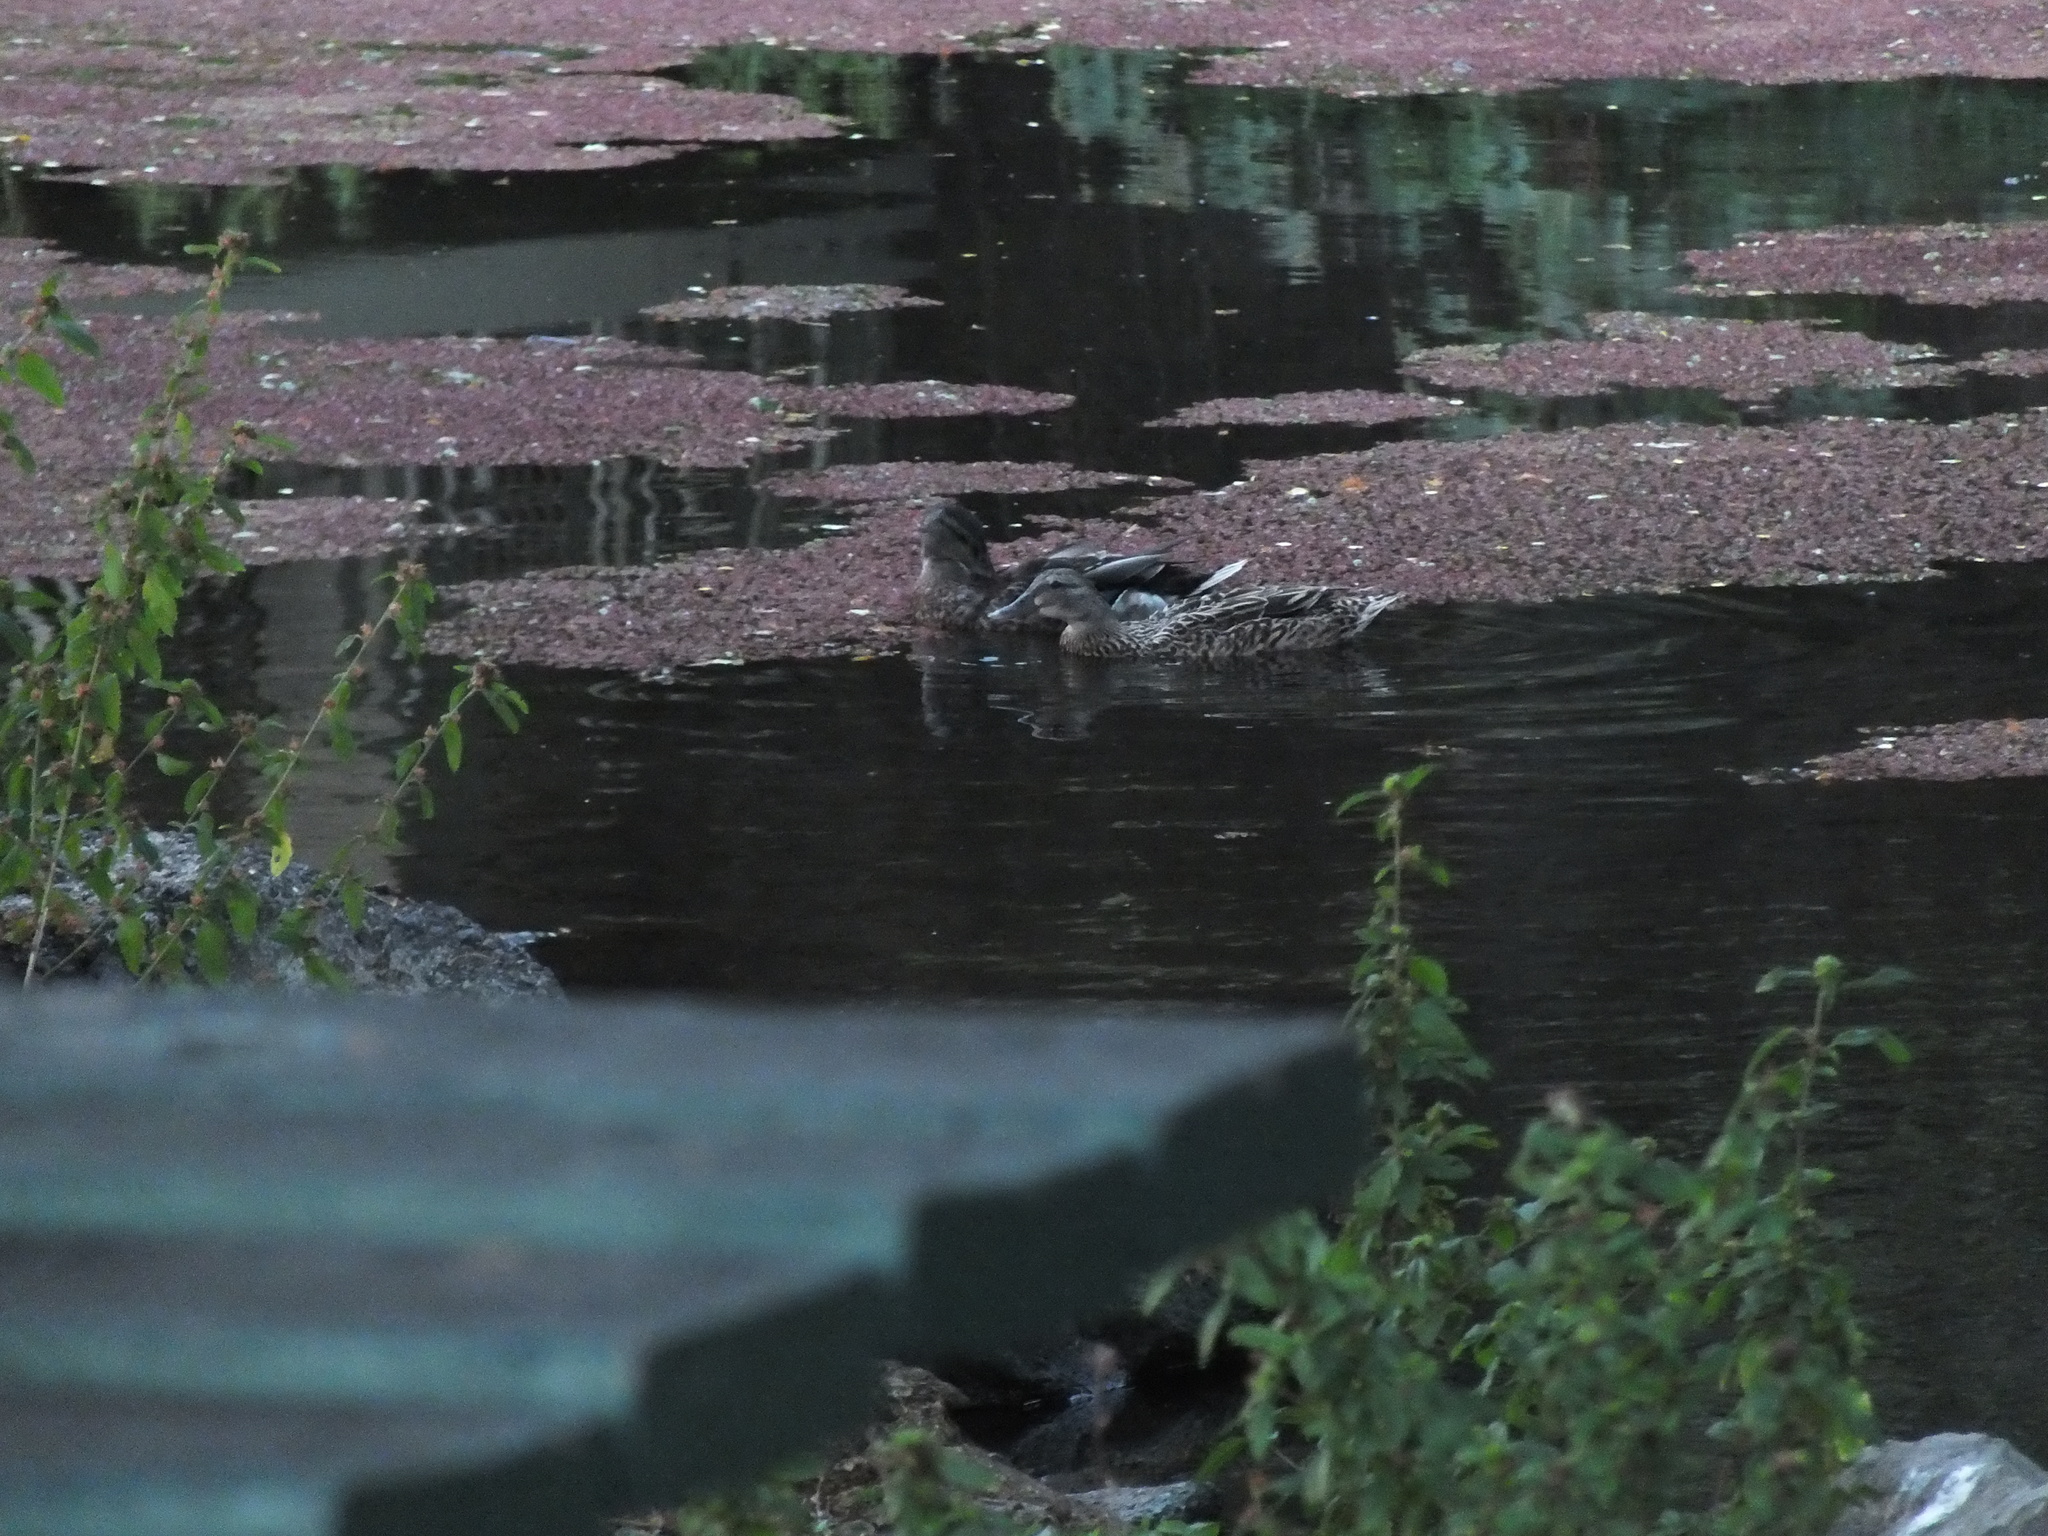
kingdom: Animalia
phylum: Chordata
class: Aves
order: Anseriformes
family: Anatidae
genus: Anas
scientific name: Anas
